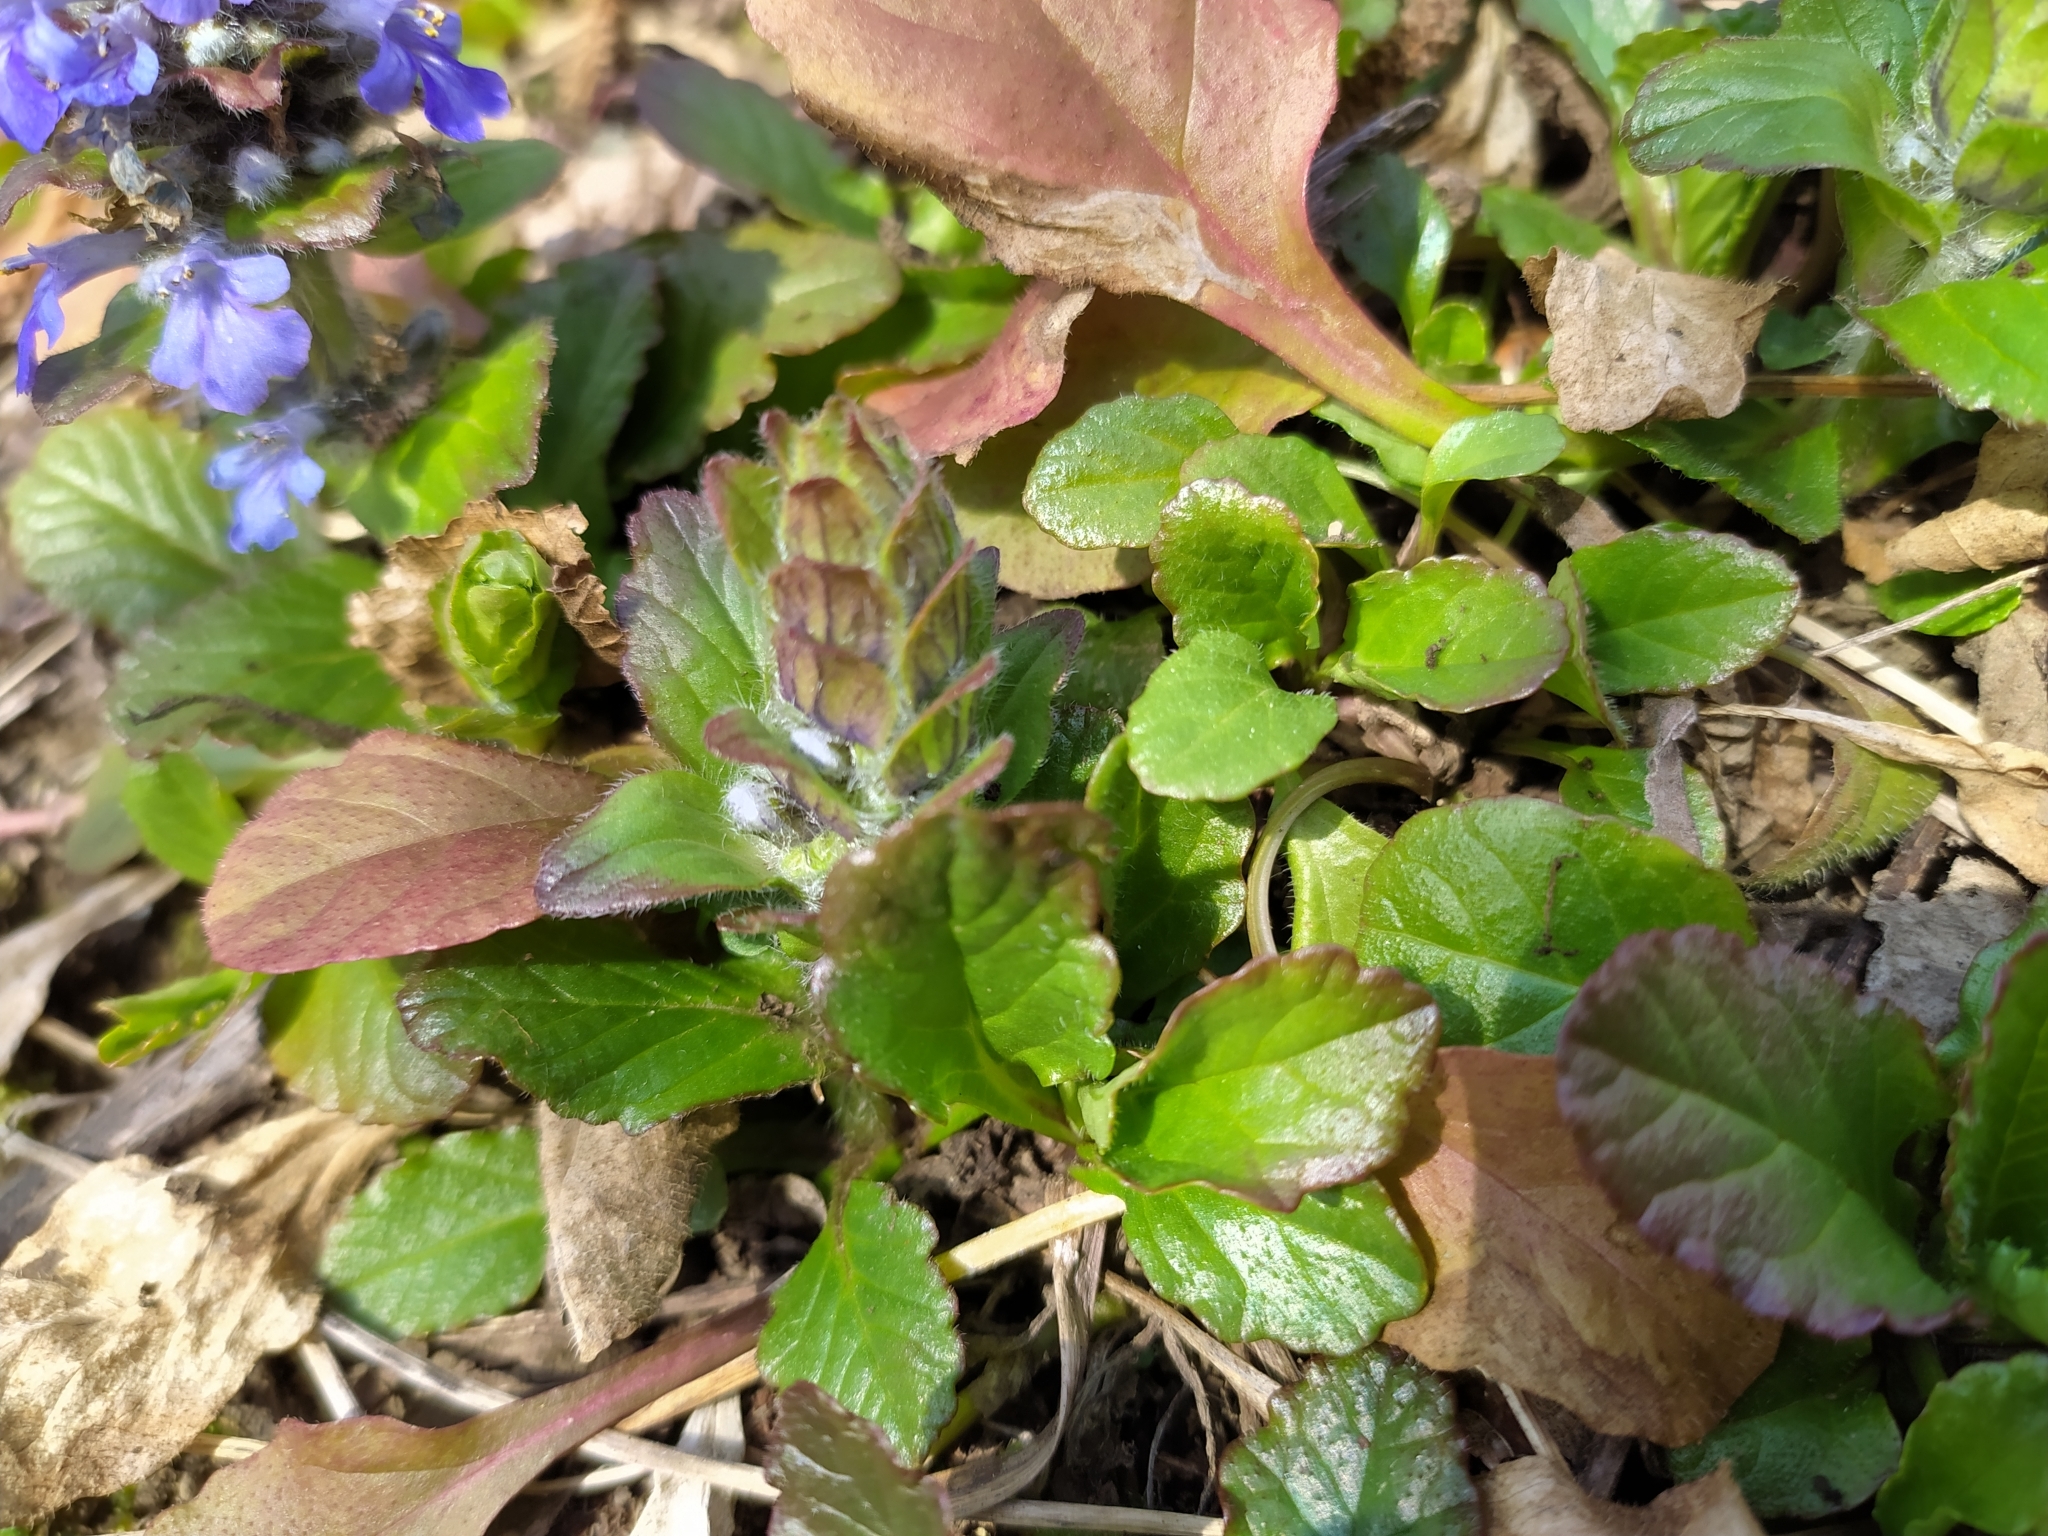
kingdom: Plantae
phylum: Tracheophyta
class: Magnoliopsida
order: Lamiales
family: Lamiaceae
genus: Ajuga
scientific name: Ajuga reptans
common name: Bugle
